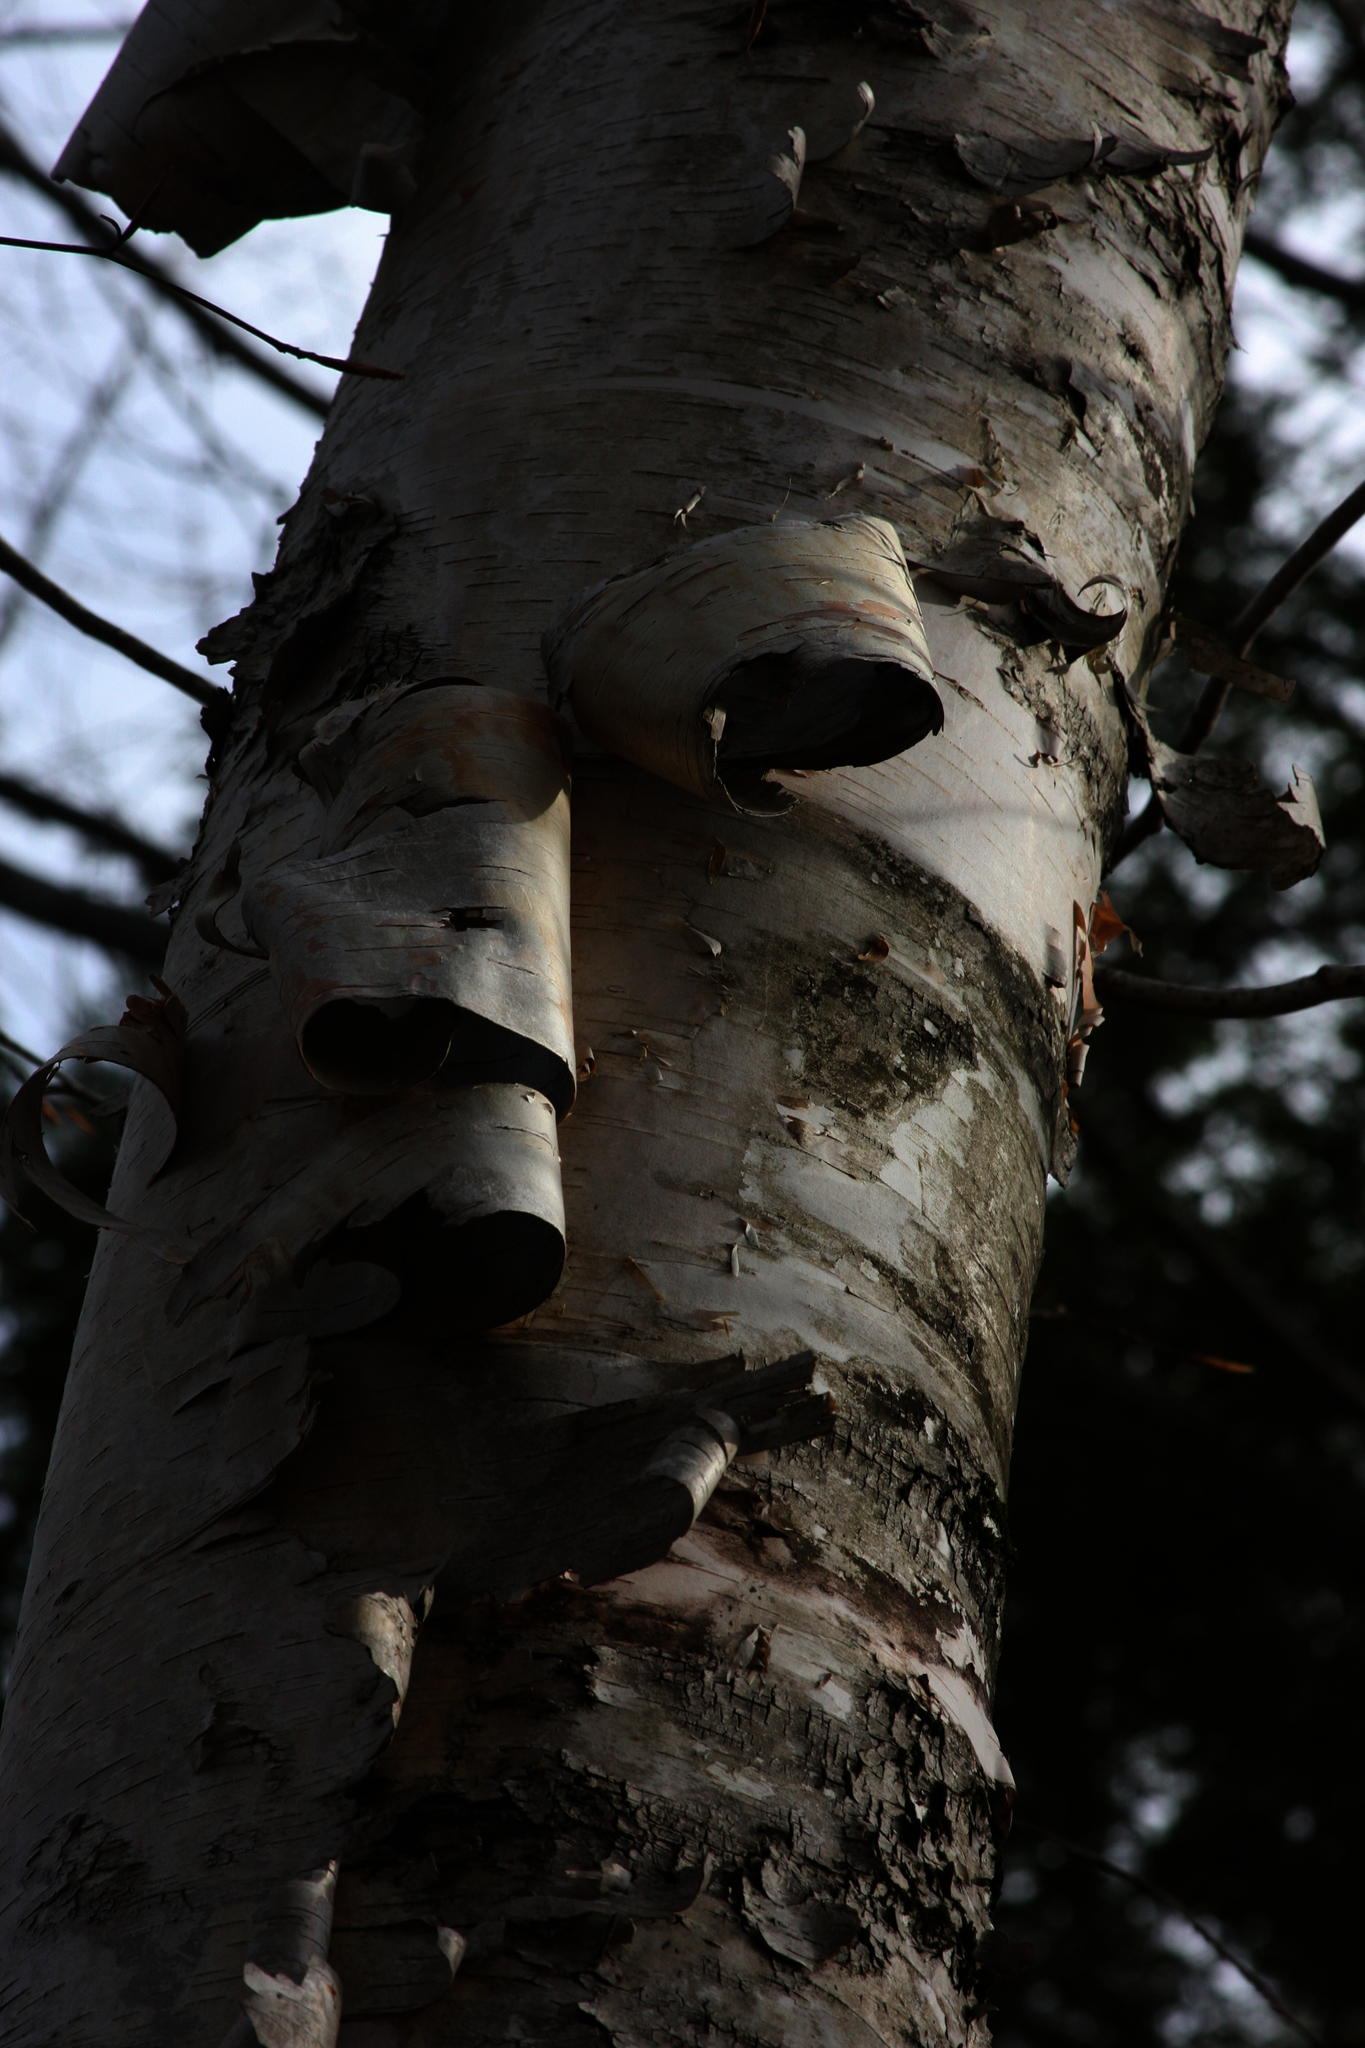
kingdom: Plantae
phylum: Tracheophyta
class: Magnoliopsida
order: Fagales
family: Betulaceae
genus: Betula
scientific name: Betula papyrifera
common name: Paper birch
